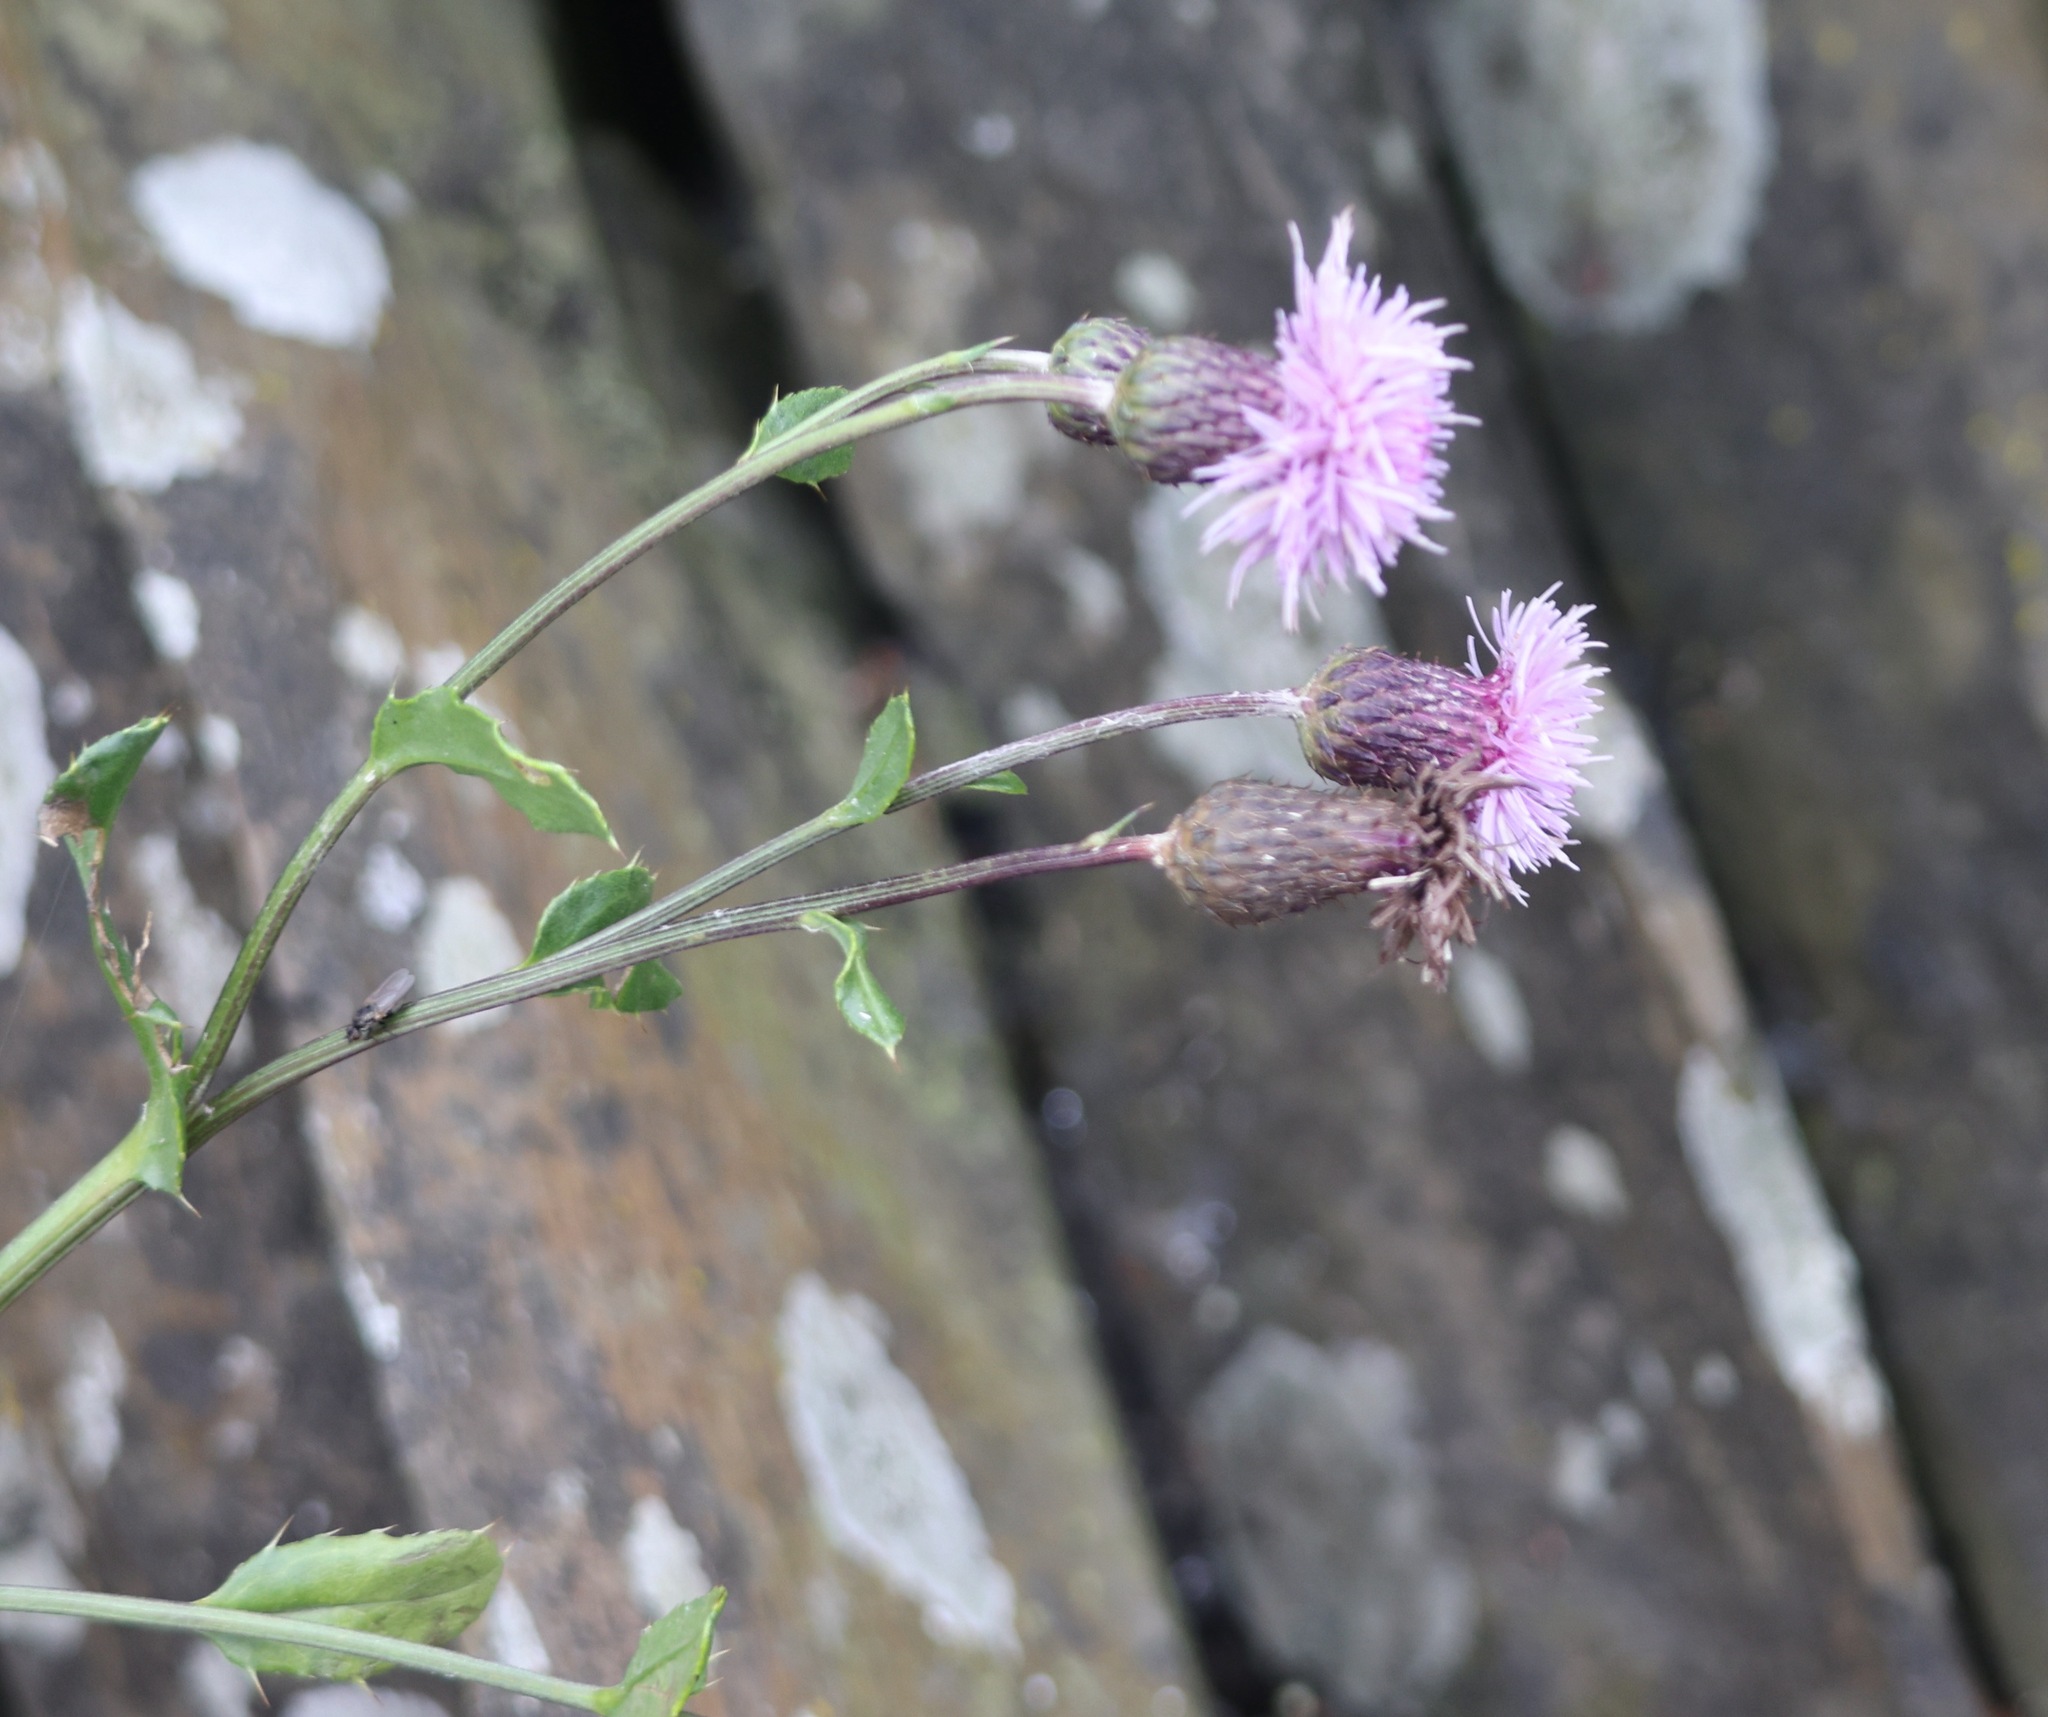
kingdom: Plantae
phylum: Tracheophyta
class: Magnoliopsida
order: Asterales
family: Asteraceae
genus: Cirsium
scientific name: Cirsium arvense
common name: Creeping thistle
